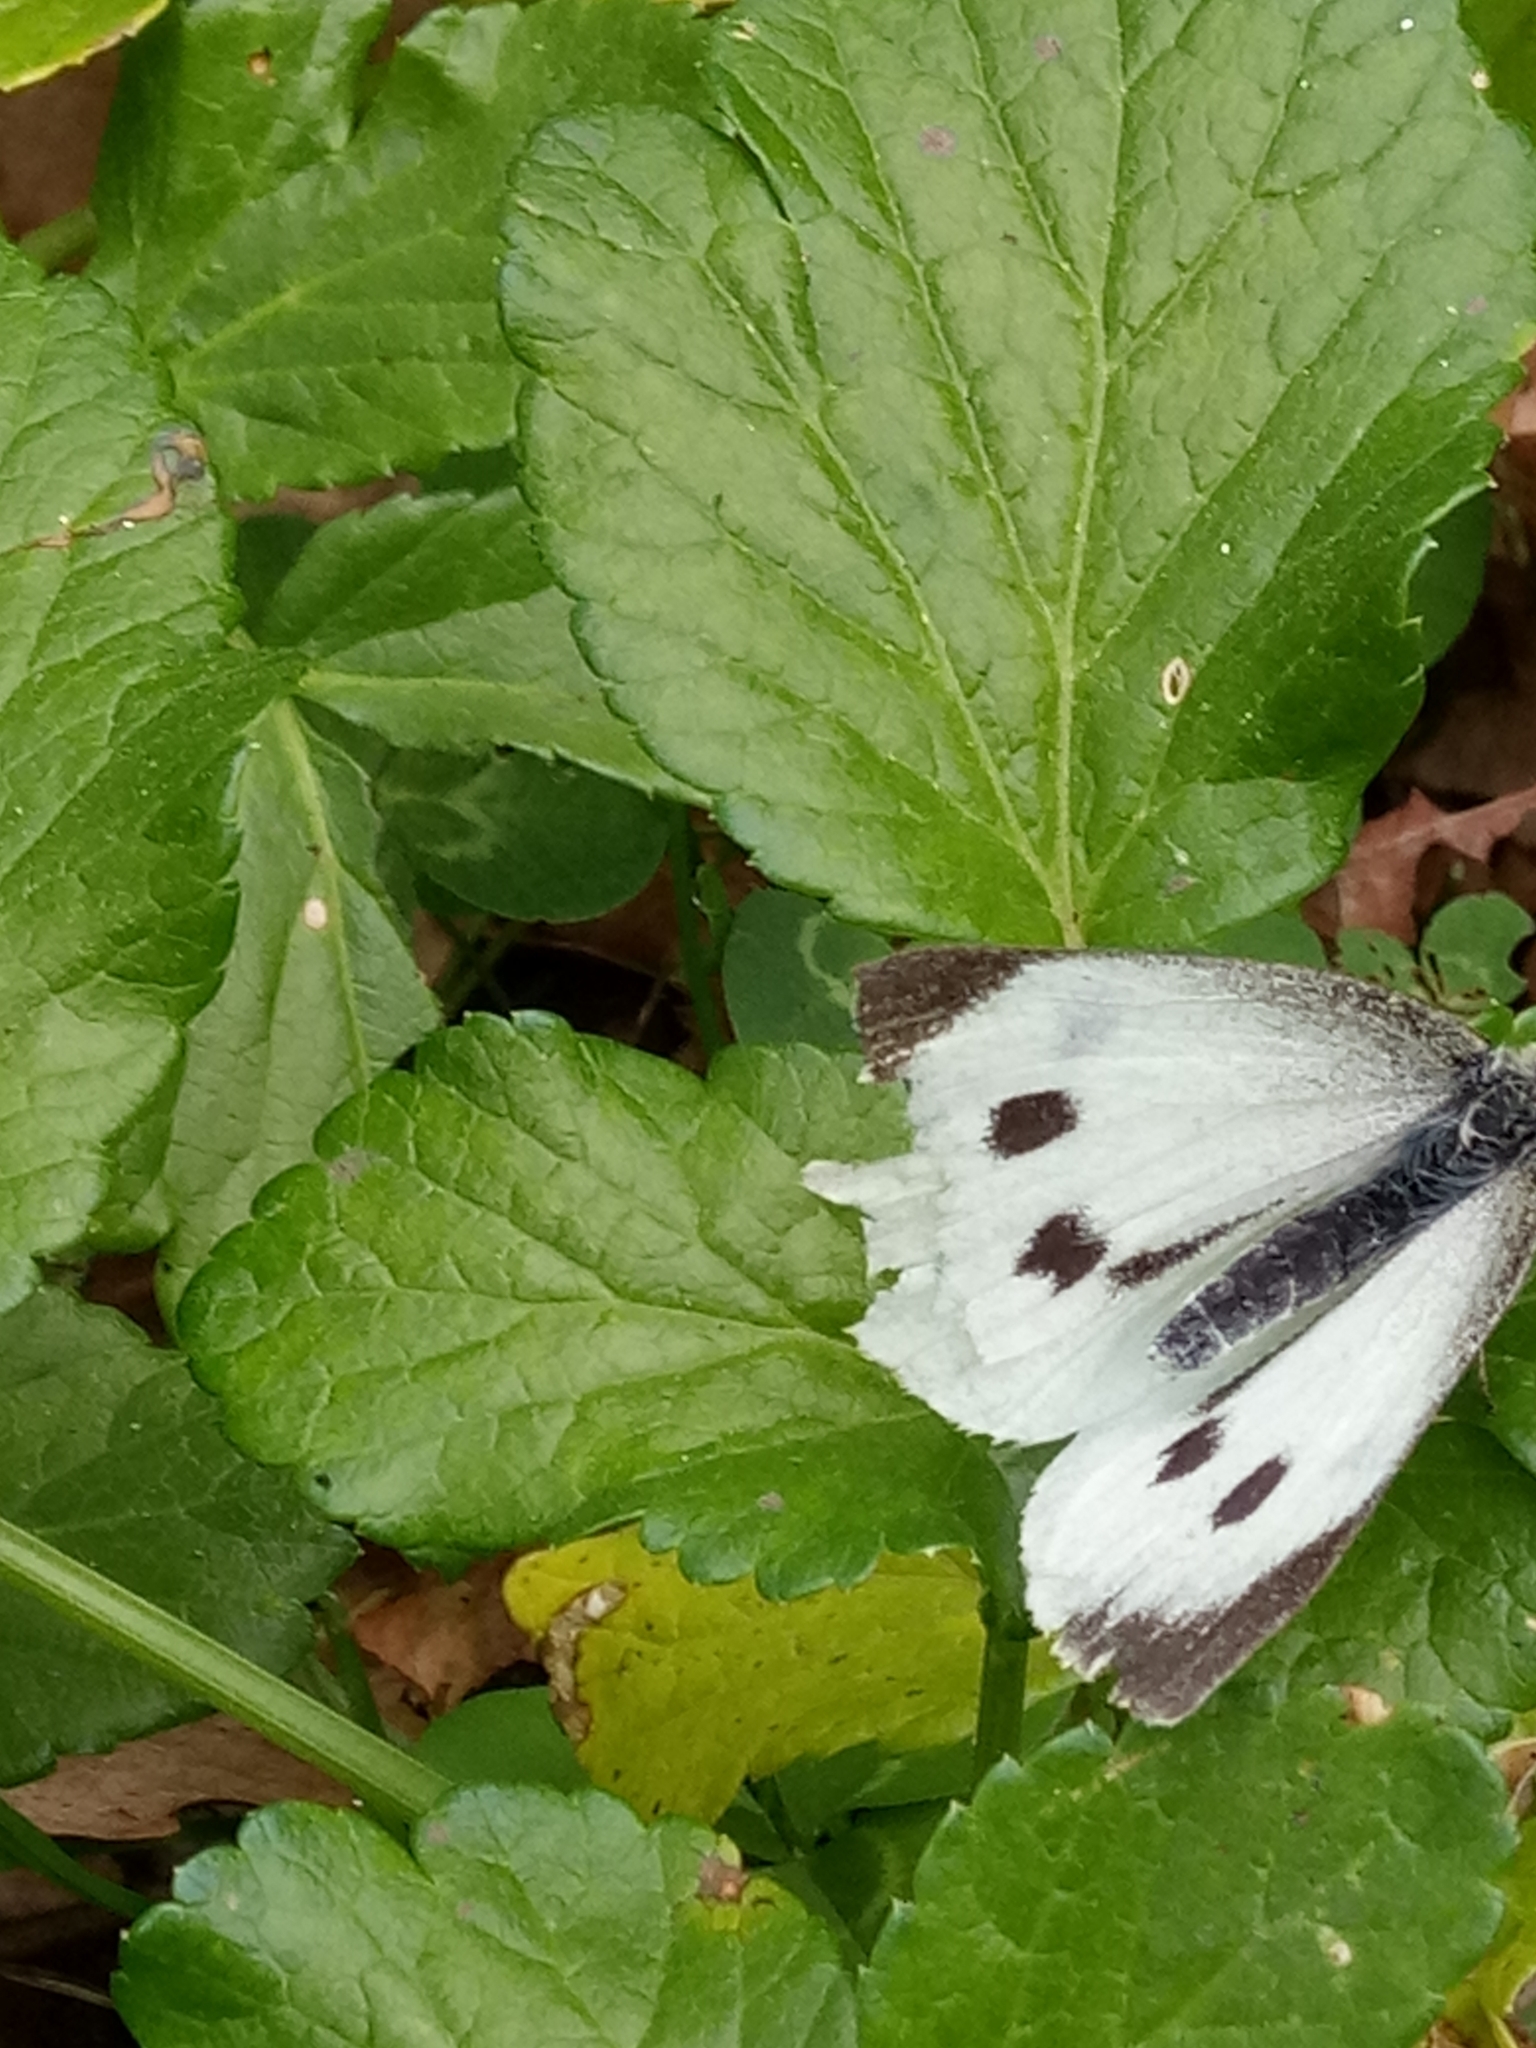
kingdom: Animalia
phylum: Arthropoda
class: Insecta
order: Lepidoptera
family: Pieridae
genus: Pieris
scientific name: Pieris brassicae
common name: Large white
